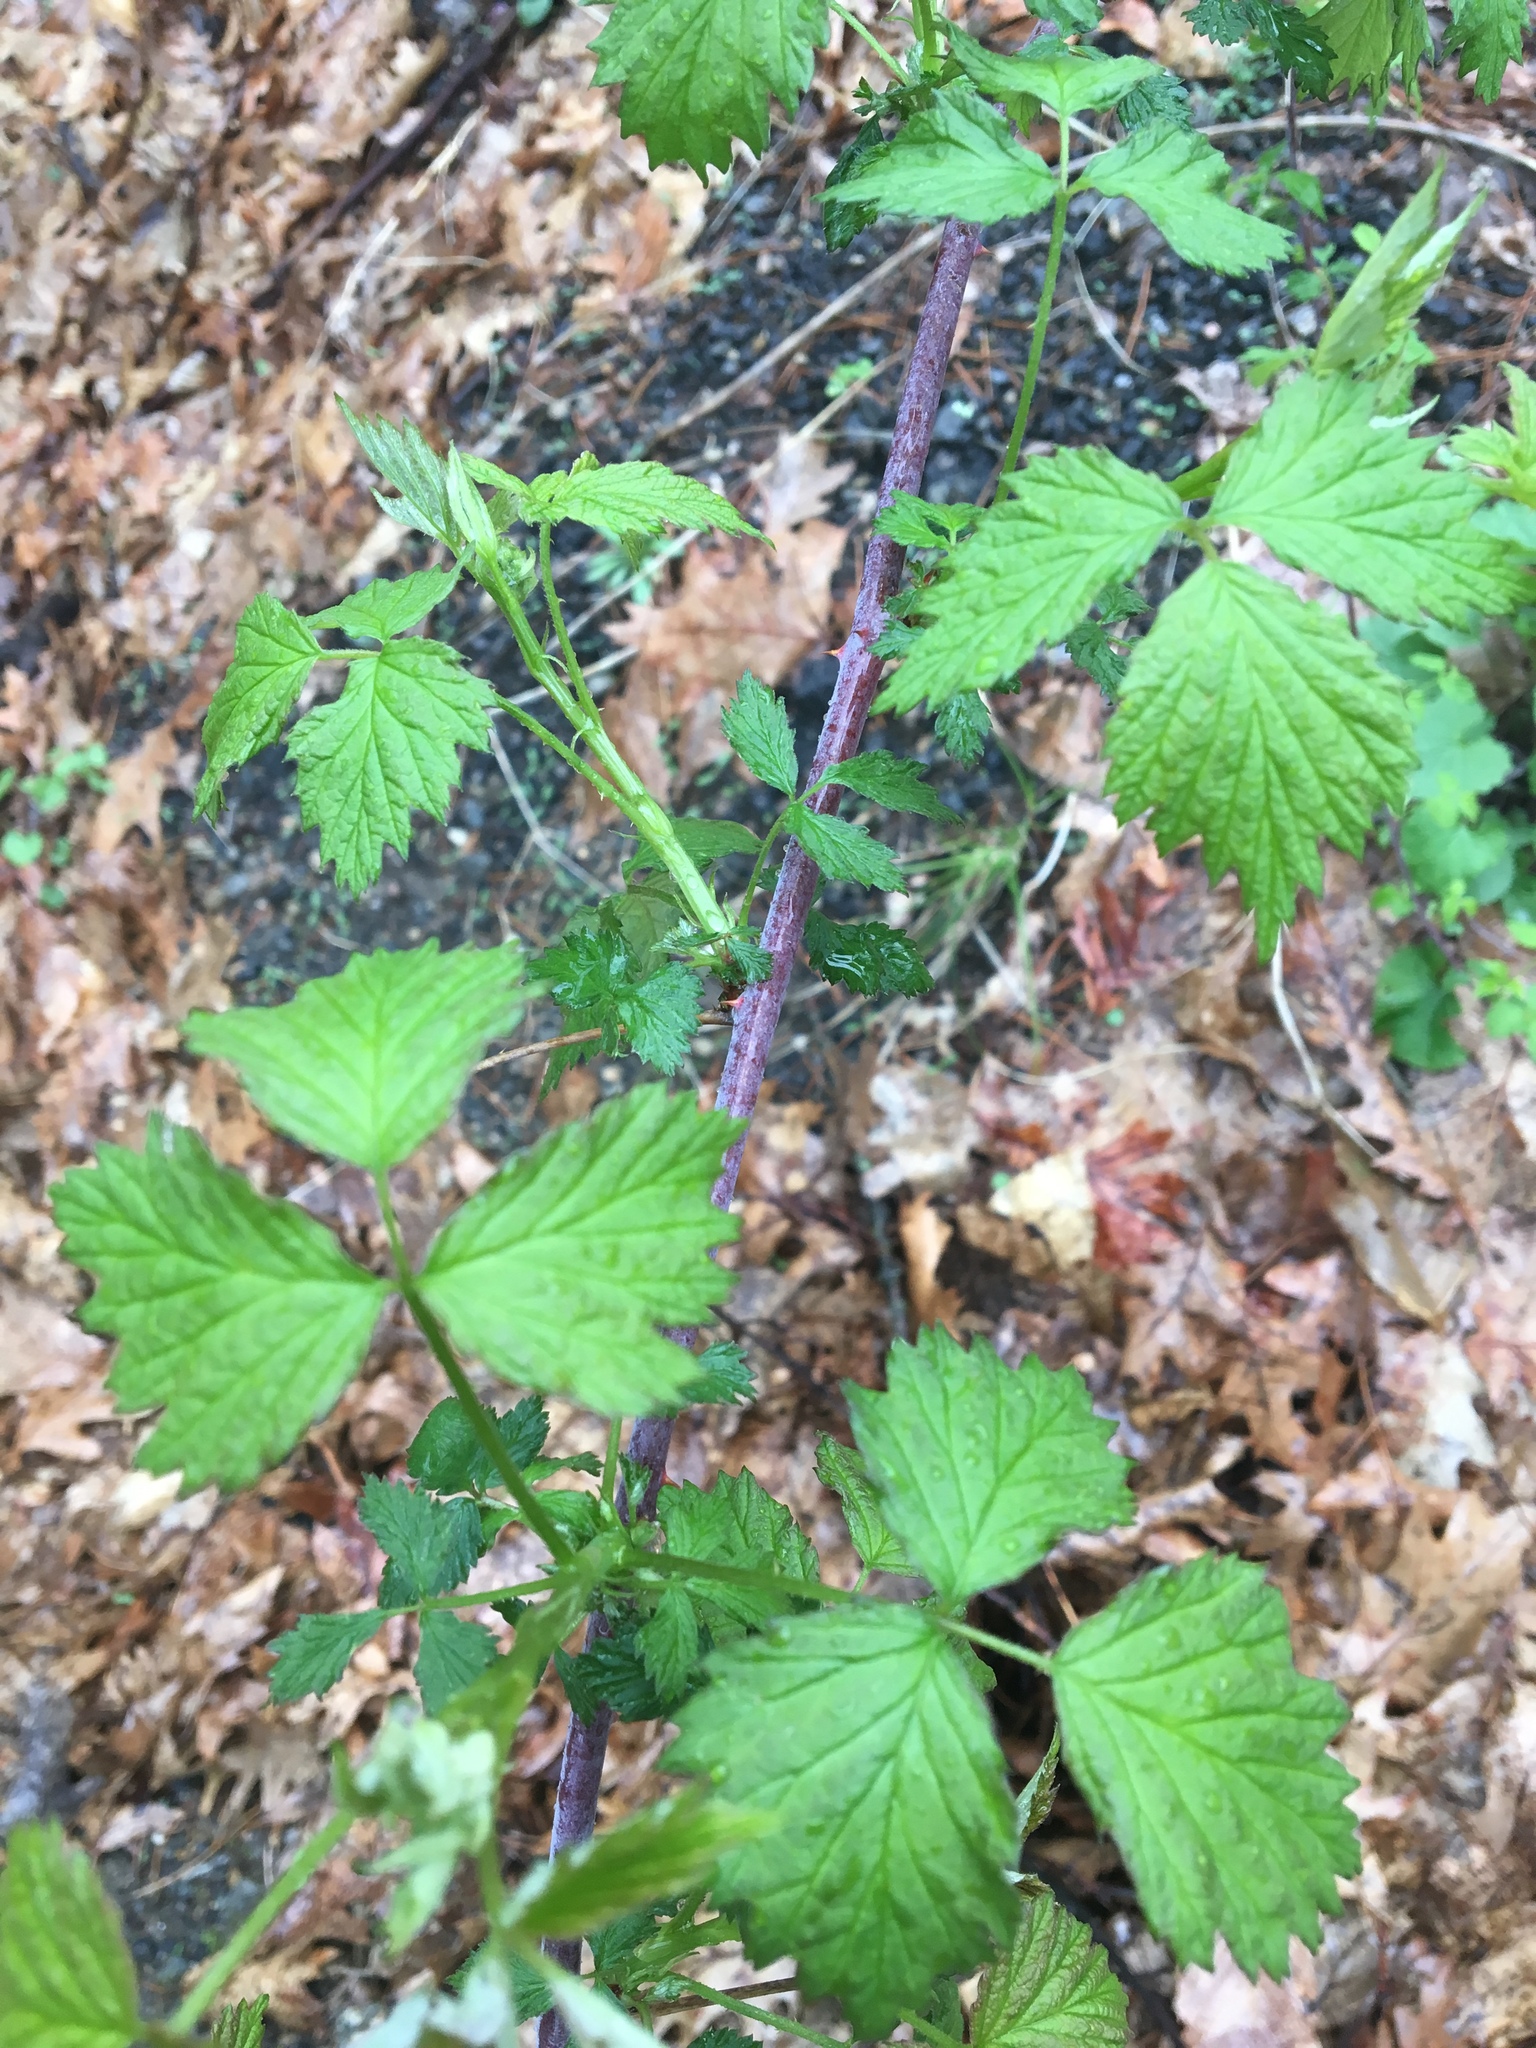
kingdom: Plantae
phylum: Tracheophyta
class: Magnoliopsida
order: Rosales
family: Rosaceae
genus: Rubus
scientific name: Rubus occidentalis
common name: Black raspberry
